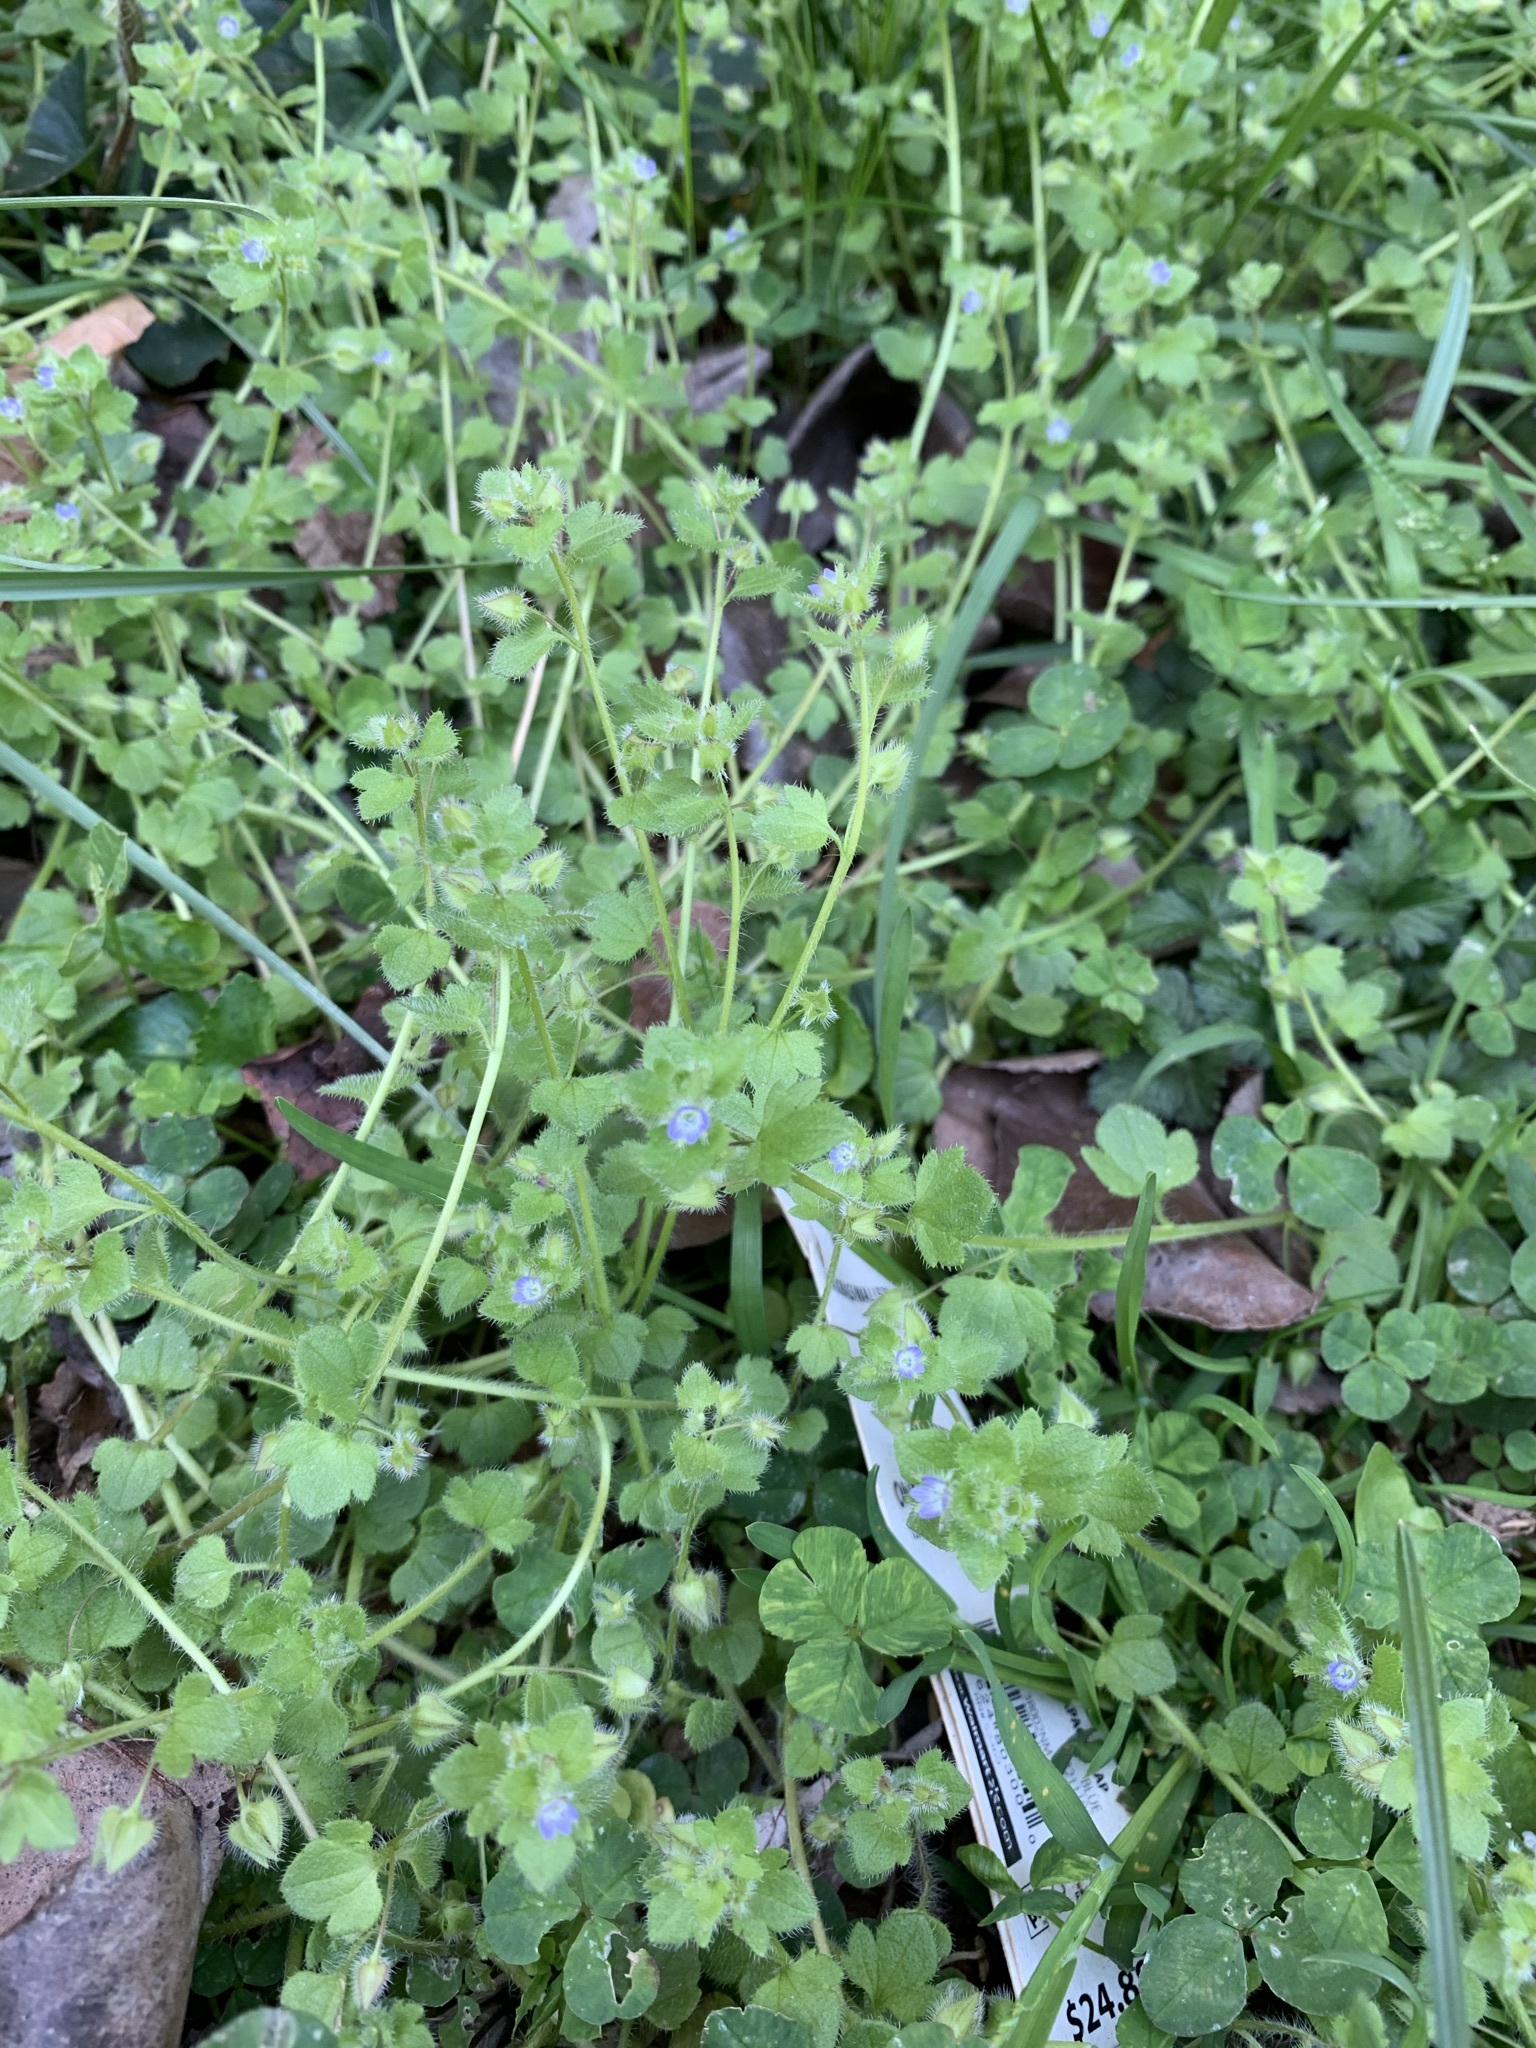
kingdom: Plantae
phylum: Tracheophyta
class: Magnoliopsida
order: Lamiales
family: Plantaginaceae
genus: Veronica
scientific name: Veronica hederifolia
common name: Ivy-leaved speedwell
